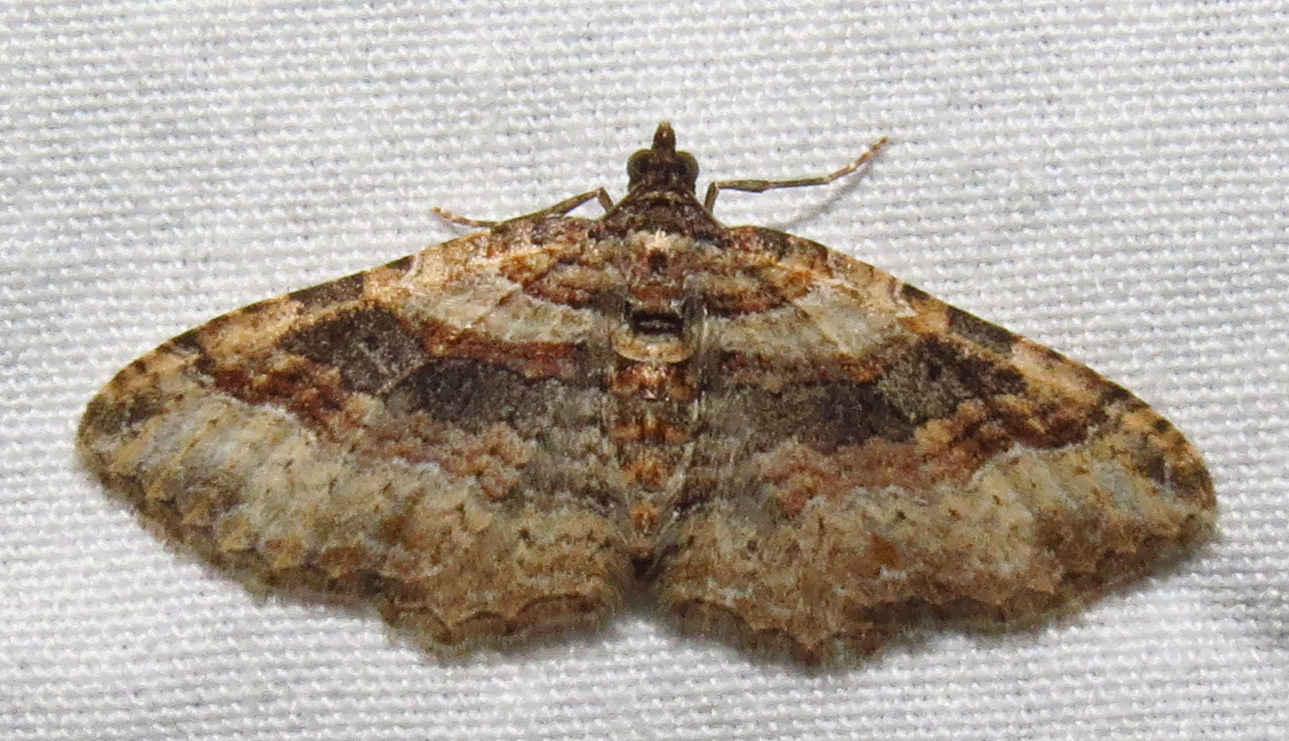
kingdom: Animalia
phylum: Arthropoda
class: Insecta
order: Lepidoptera
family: Geometridae
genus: Costaconvexa
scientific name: Costaconvexa centrostrigaria
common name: Bent-line carpet
